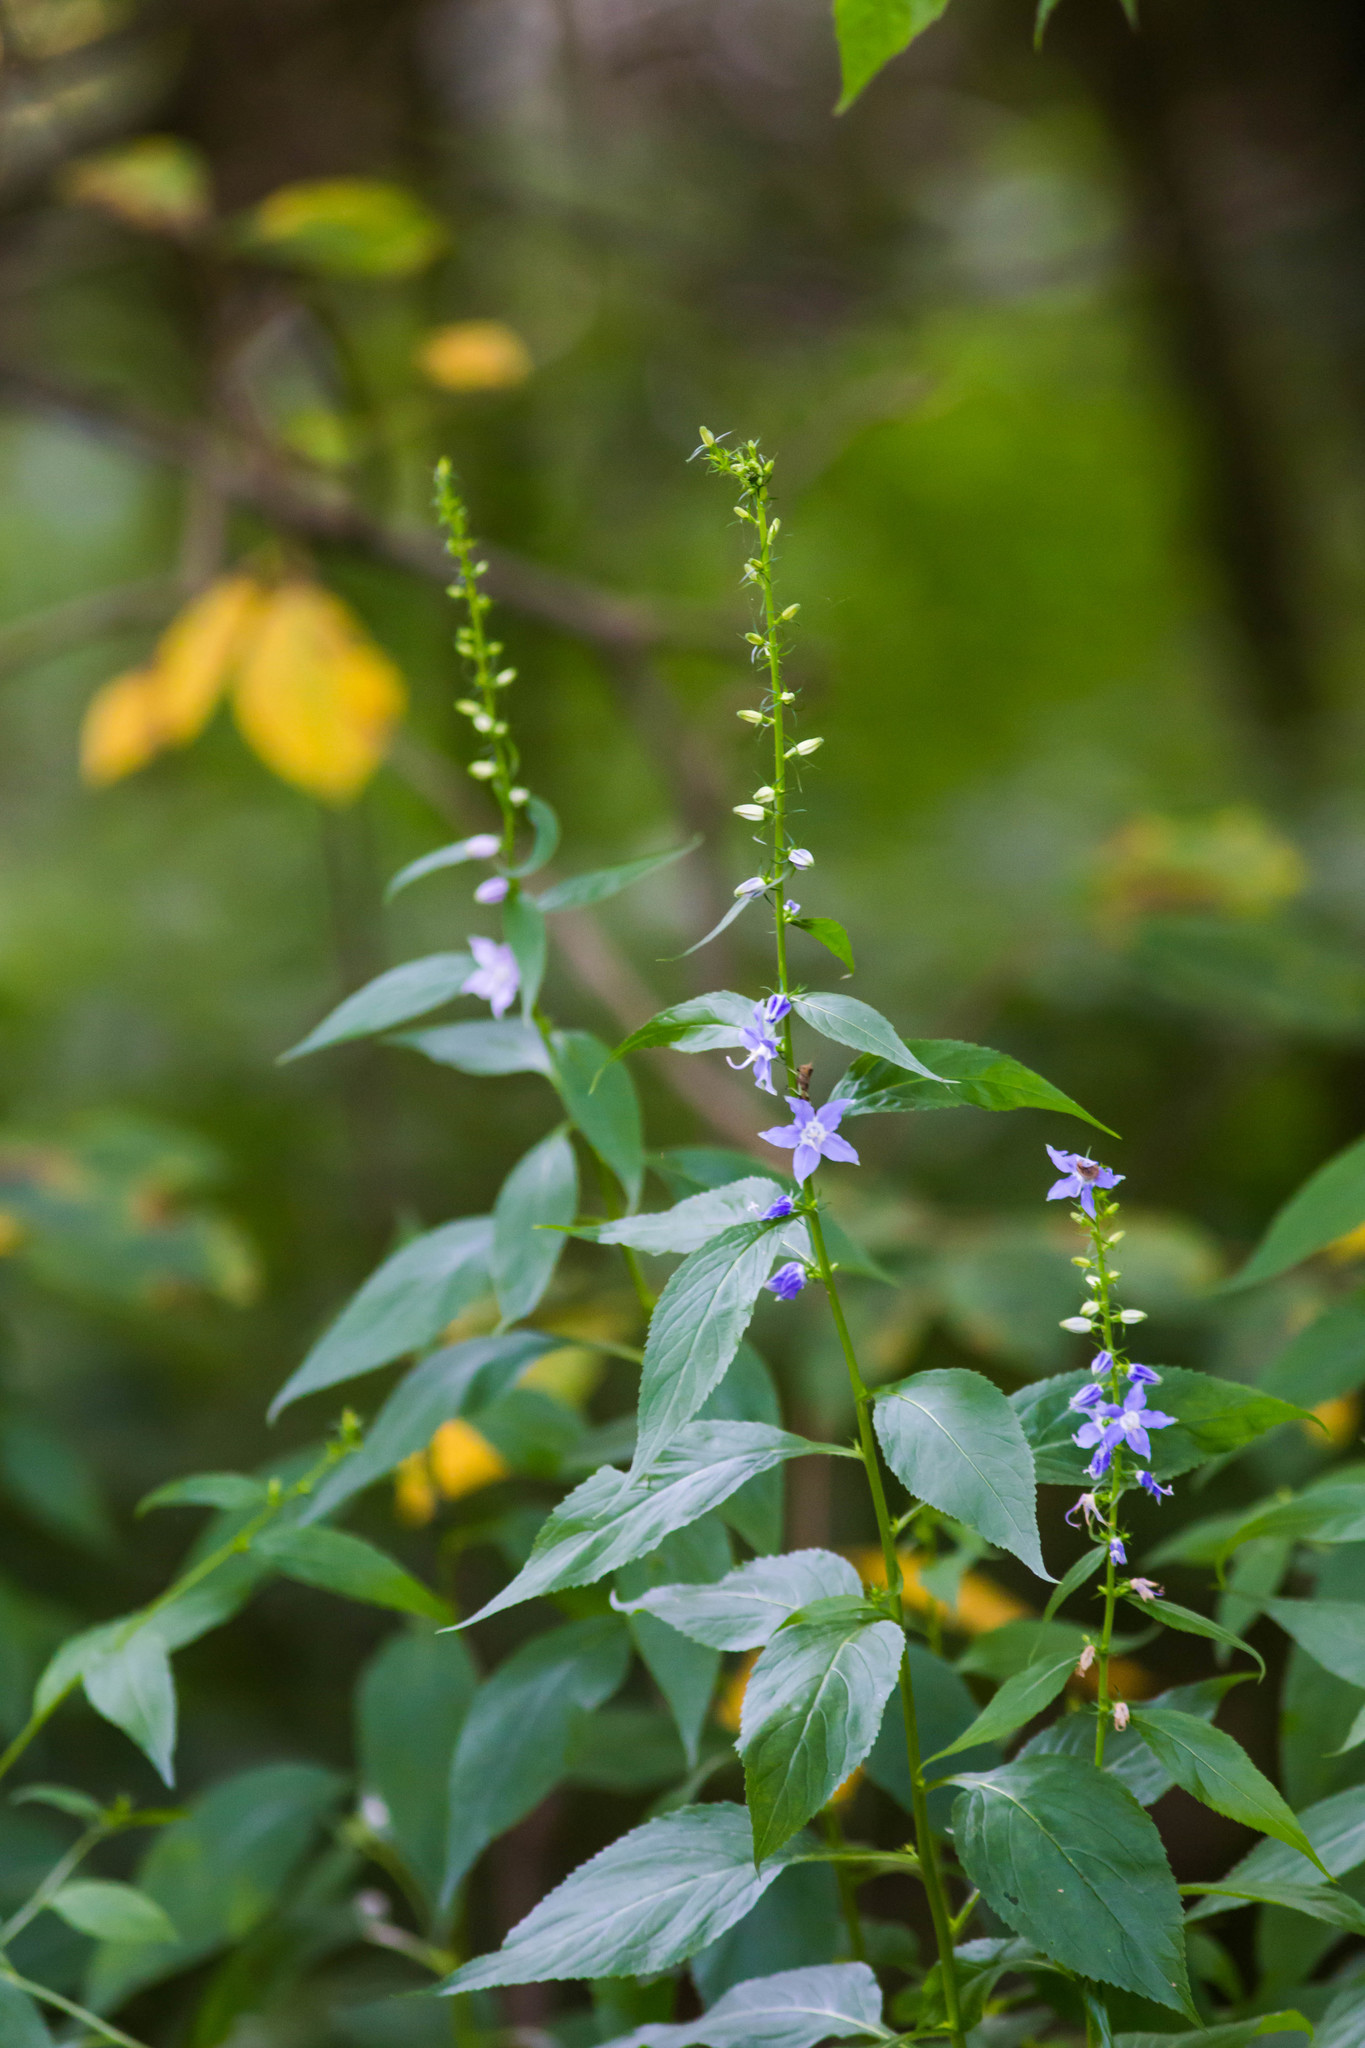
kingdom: Plantae
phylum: Tracheophyta
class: Magnoliopsida
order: Asterales
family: Campanulaceae
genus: Campanulastrum
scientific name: Campanulastrum americanum
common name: American bellflower
